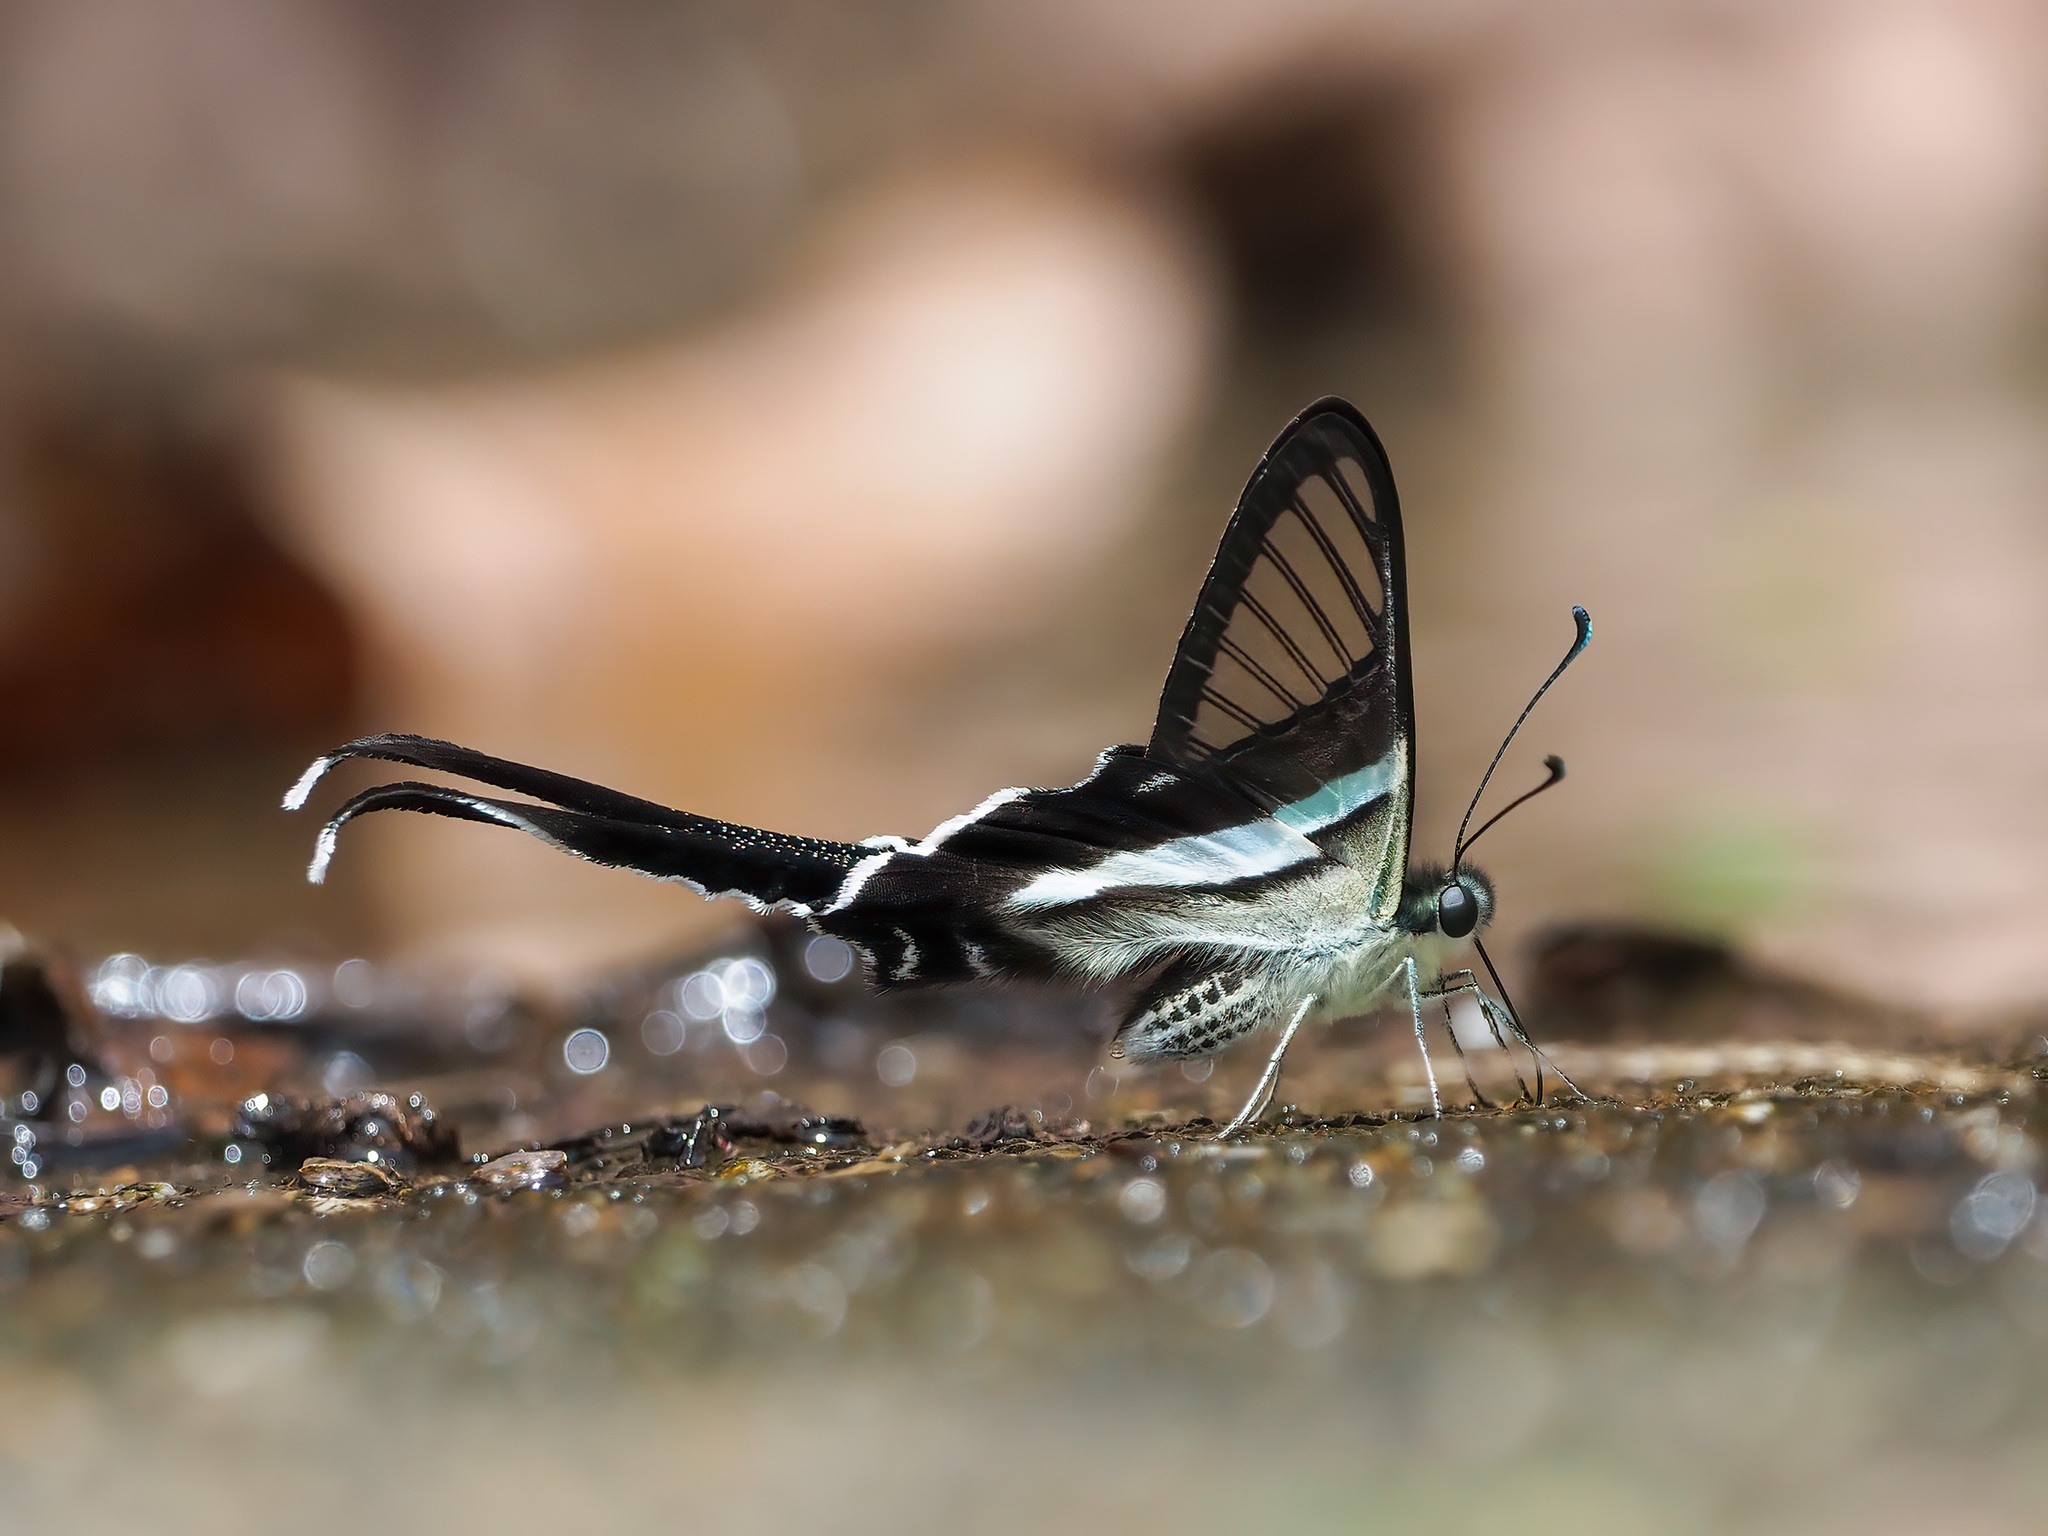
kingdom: Animalia
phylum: Arthropoda
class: Insecta
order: Lepidoptera
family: Papilionidae
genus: Lamproptera
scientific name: Lamproptera meges
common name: Green dragontail
